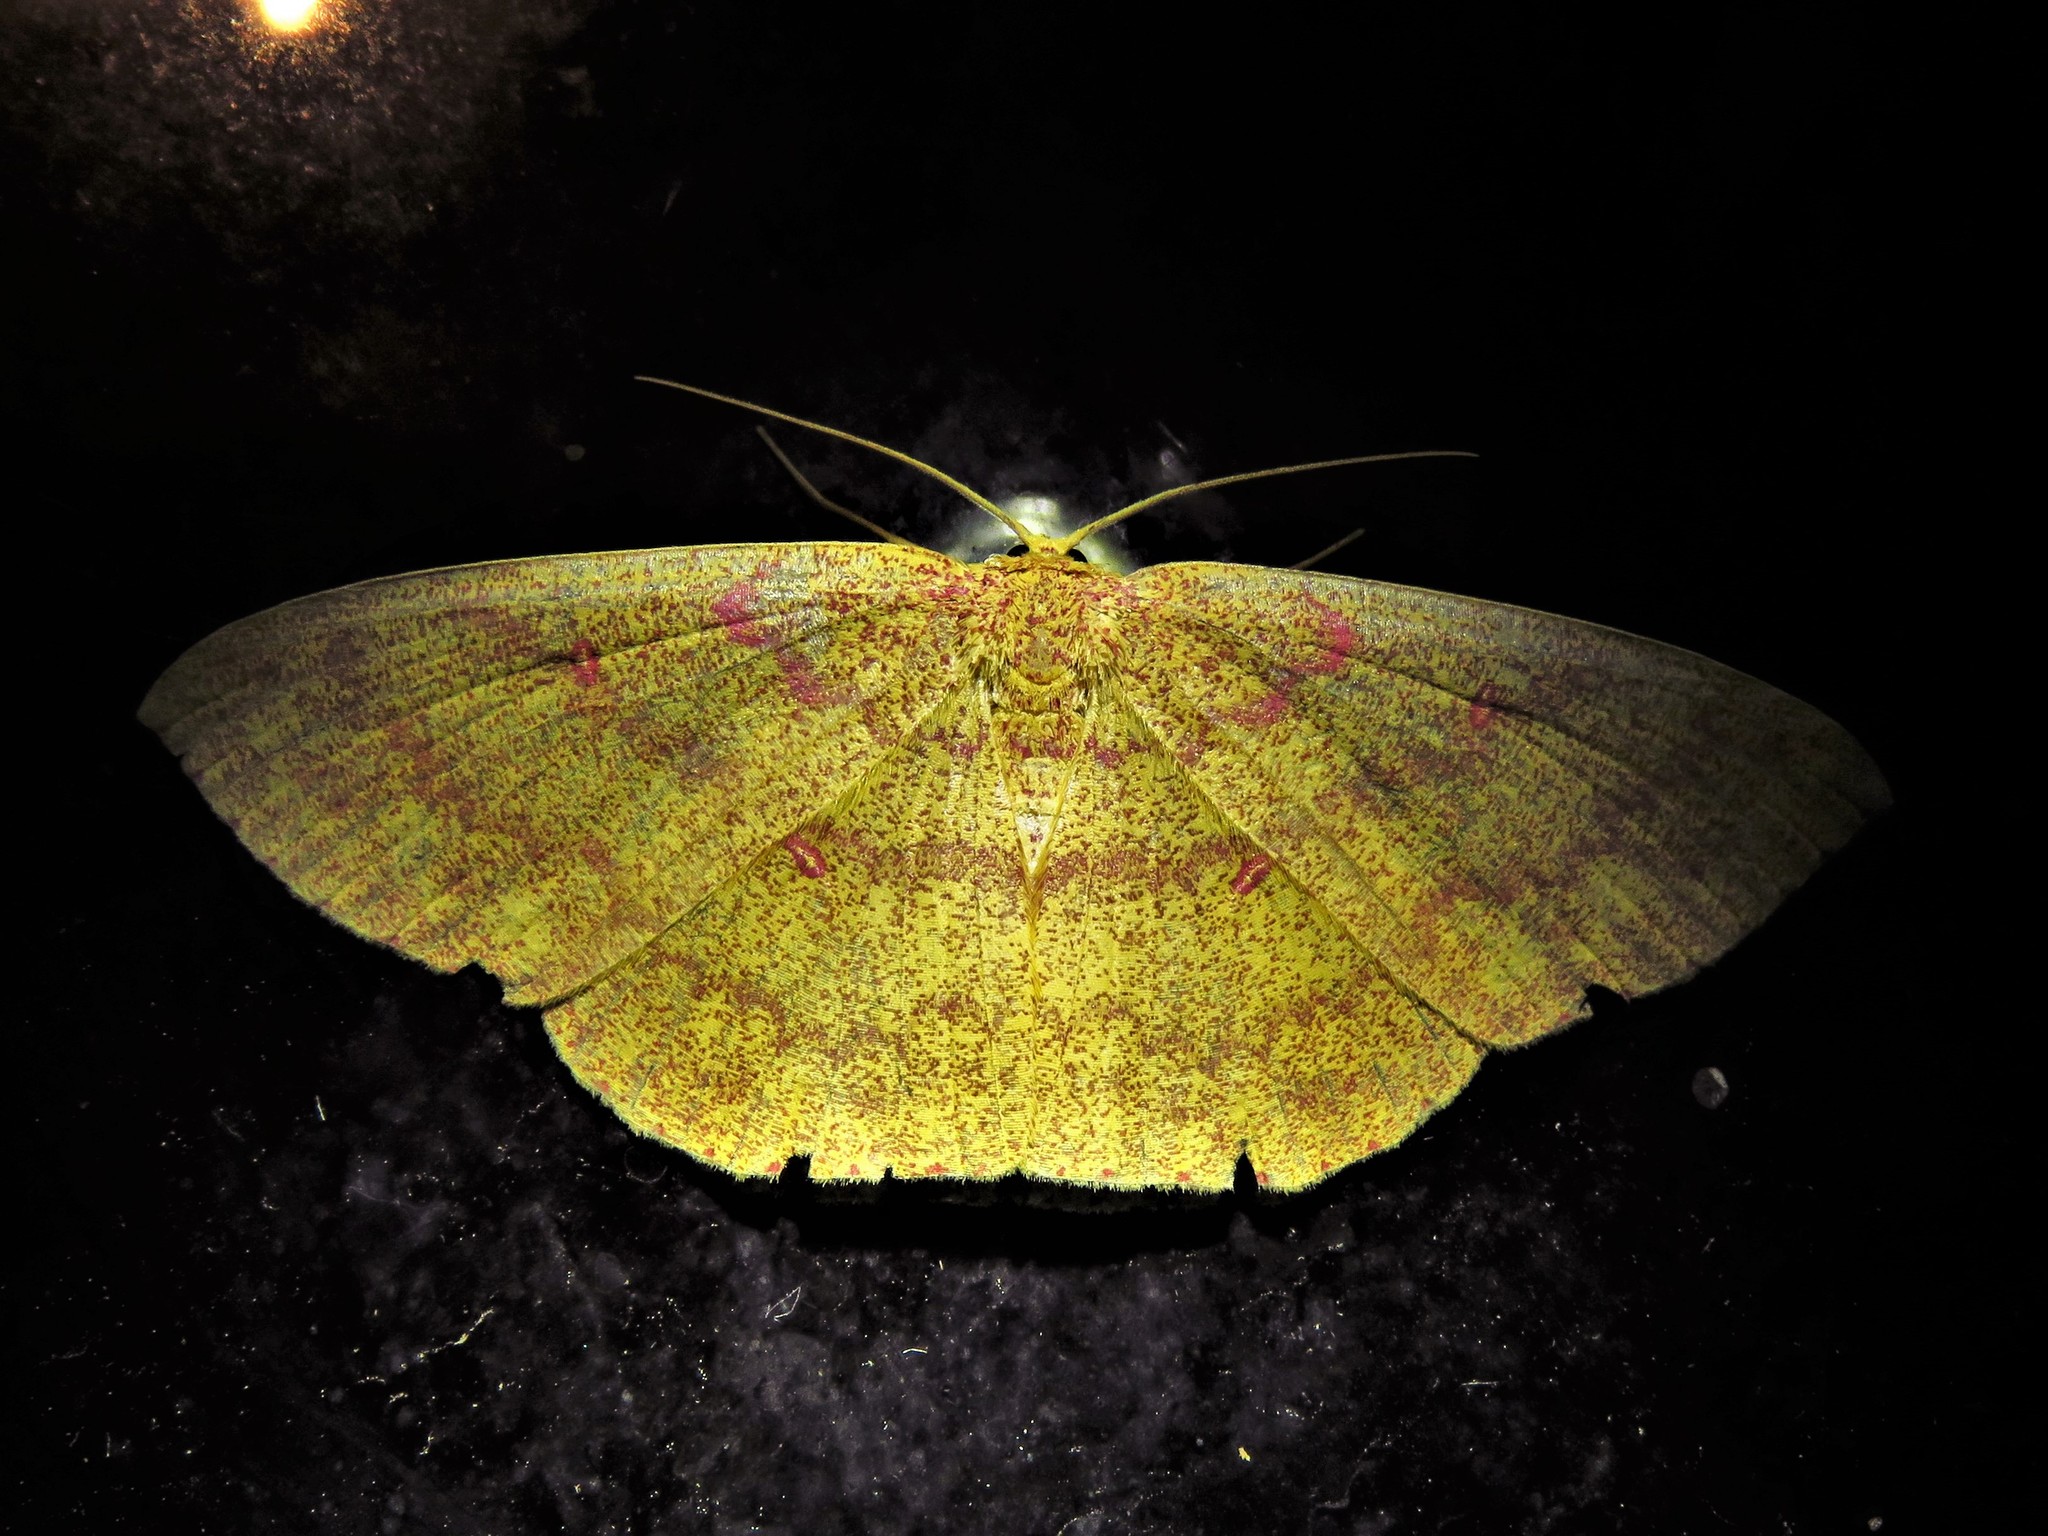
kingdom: Animalia
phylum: Arthropoda
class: Insecta
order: Lepidoptera
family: Geometridae
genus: Cyclophora
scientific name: Cyclophora
